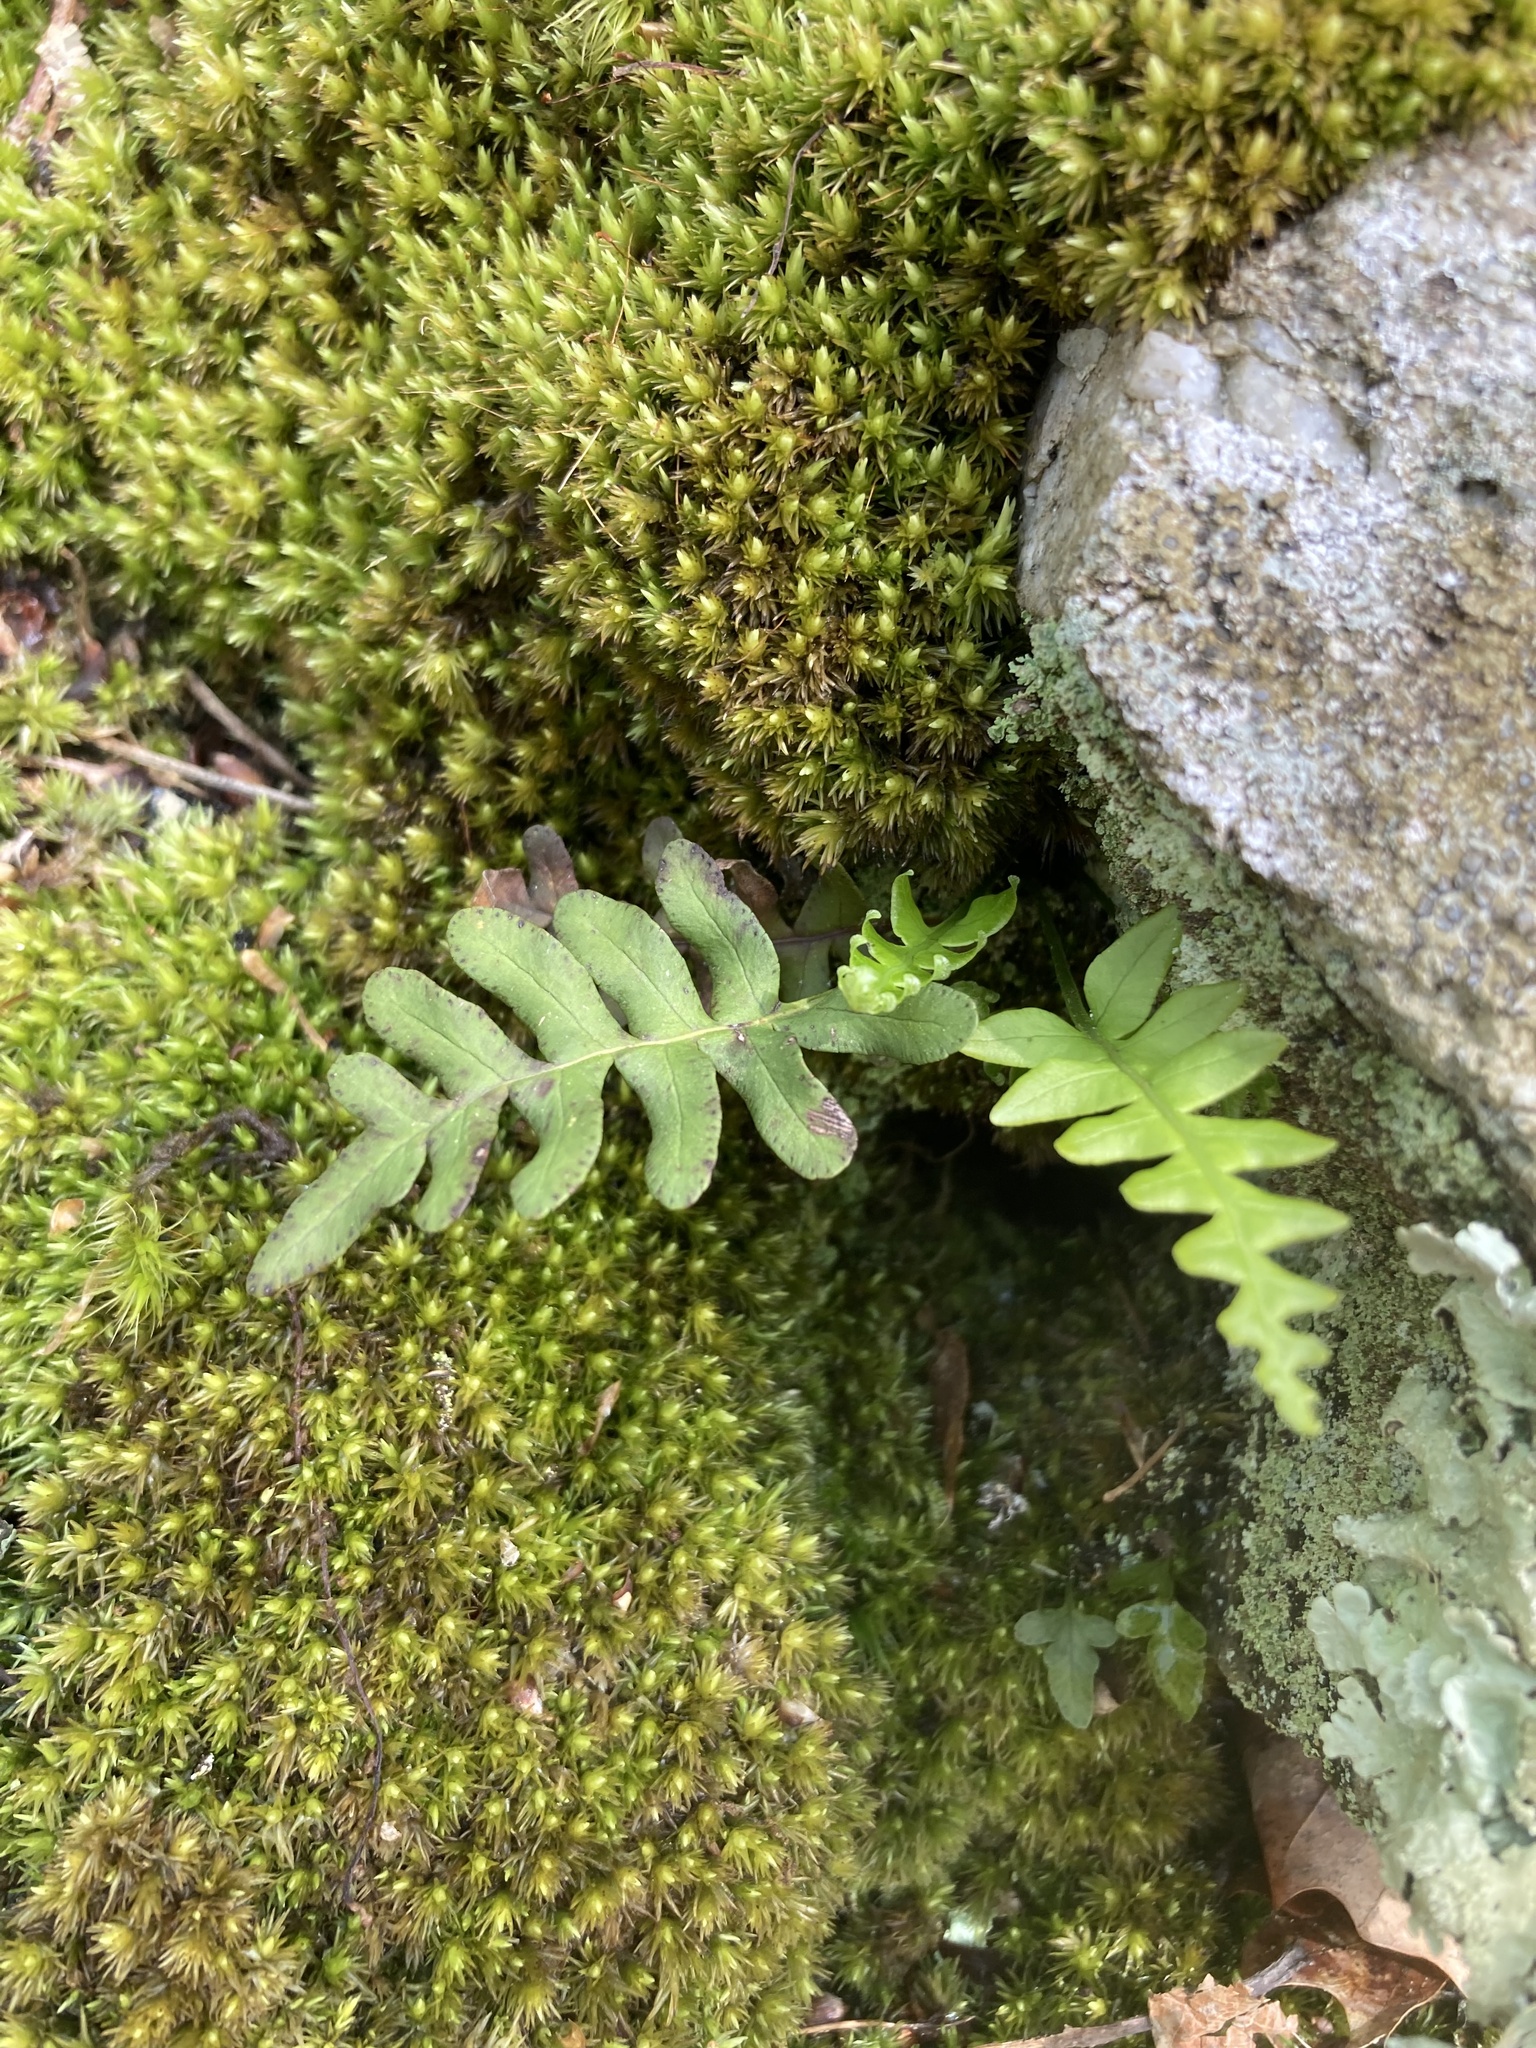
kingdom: Plantae
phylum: Tracheophyta
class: Polypodiopsida
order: Polypodiales
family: Polypodiaceae
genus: Polypodium
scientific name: Polypodium virginianum
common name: American wall fern
